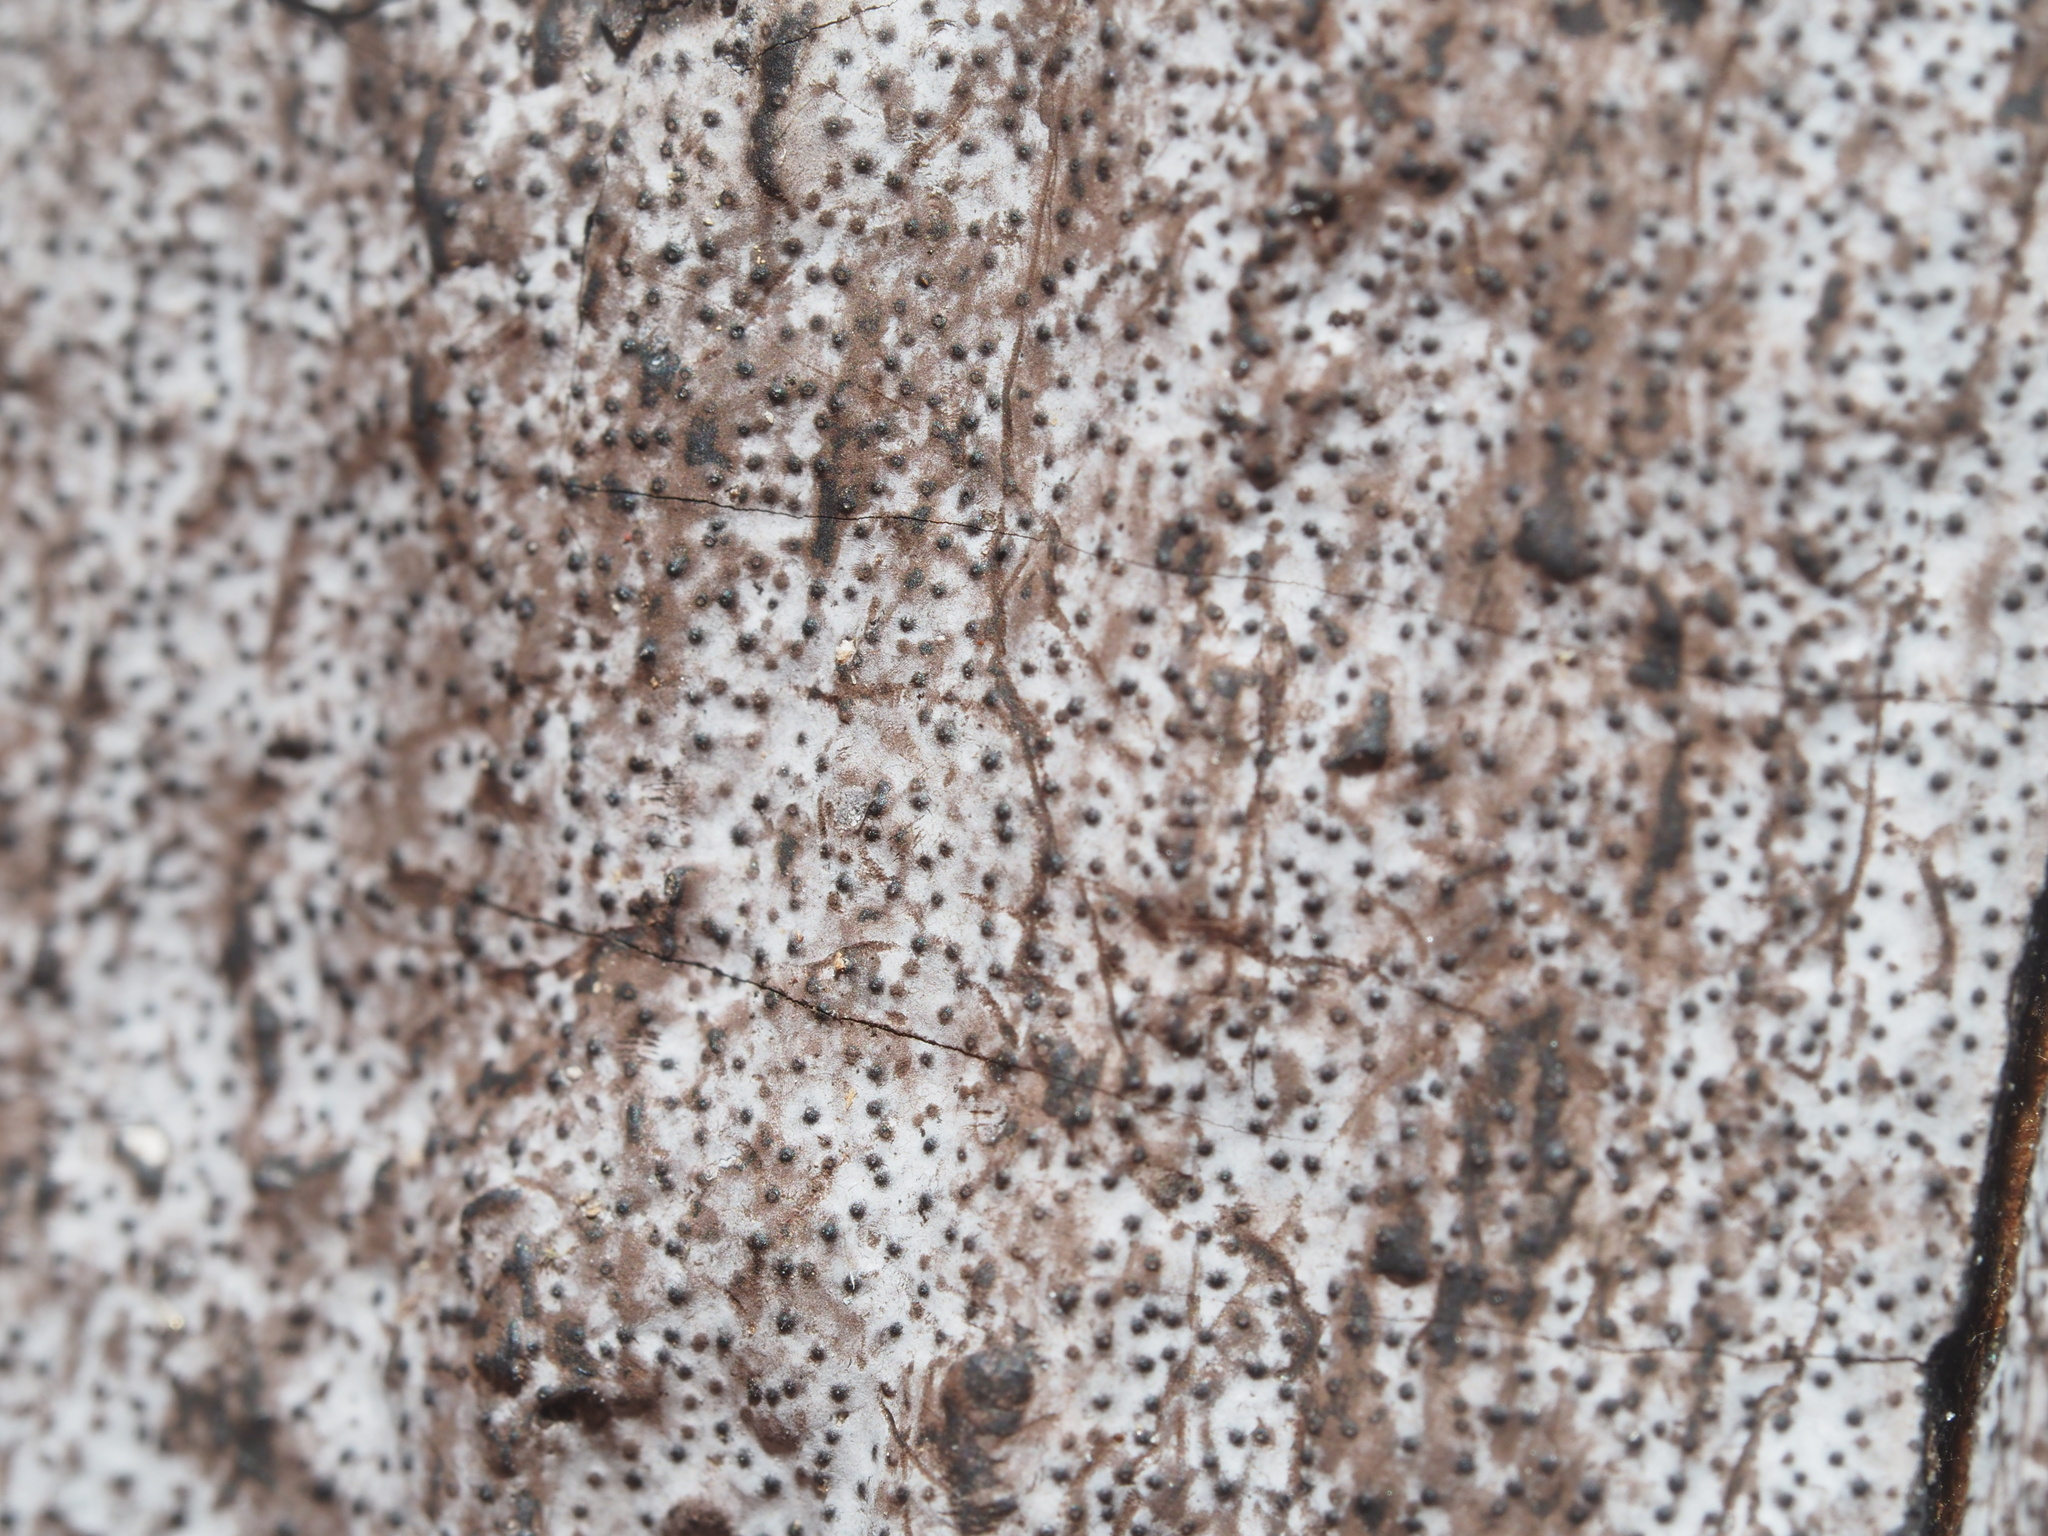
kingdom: Fungi
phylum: Ascomycota
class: Sordariomycetes
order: Xylariales
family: Graphostromataceae
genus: Biscogniauxia
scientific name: Biscogniauxia atropunctata
